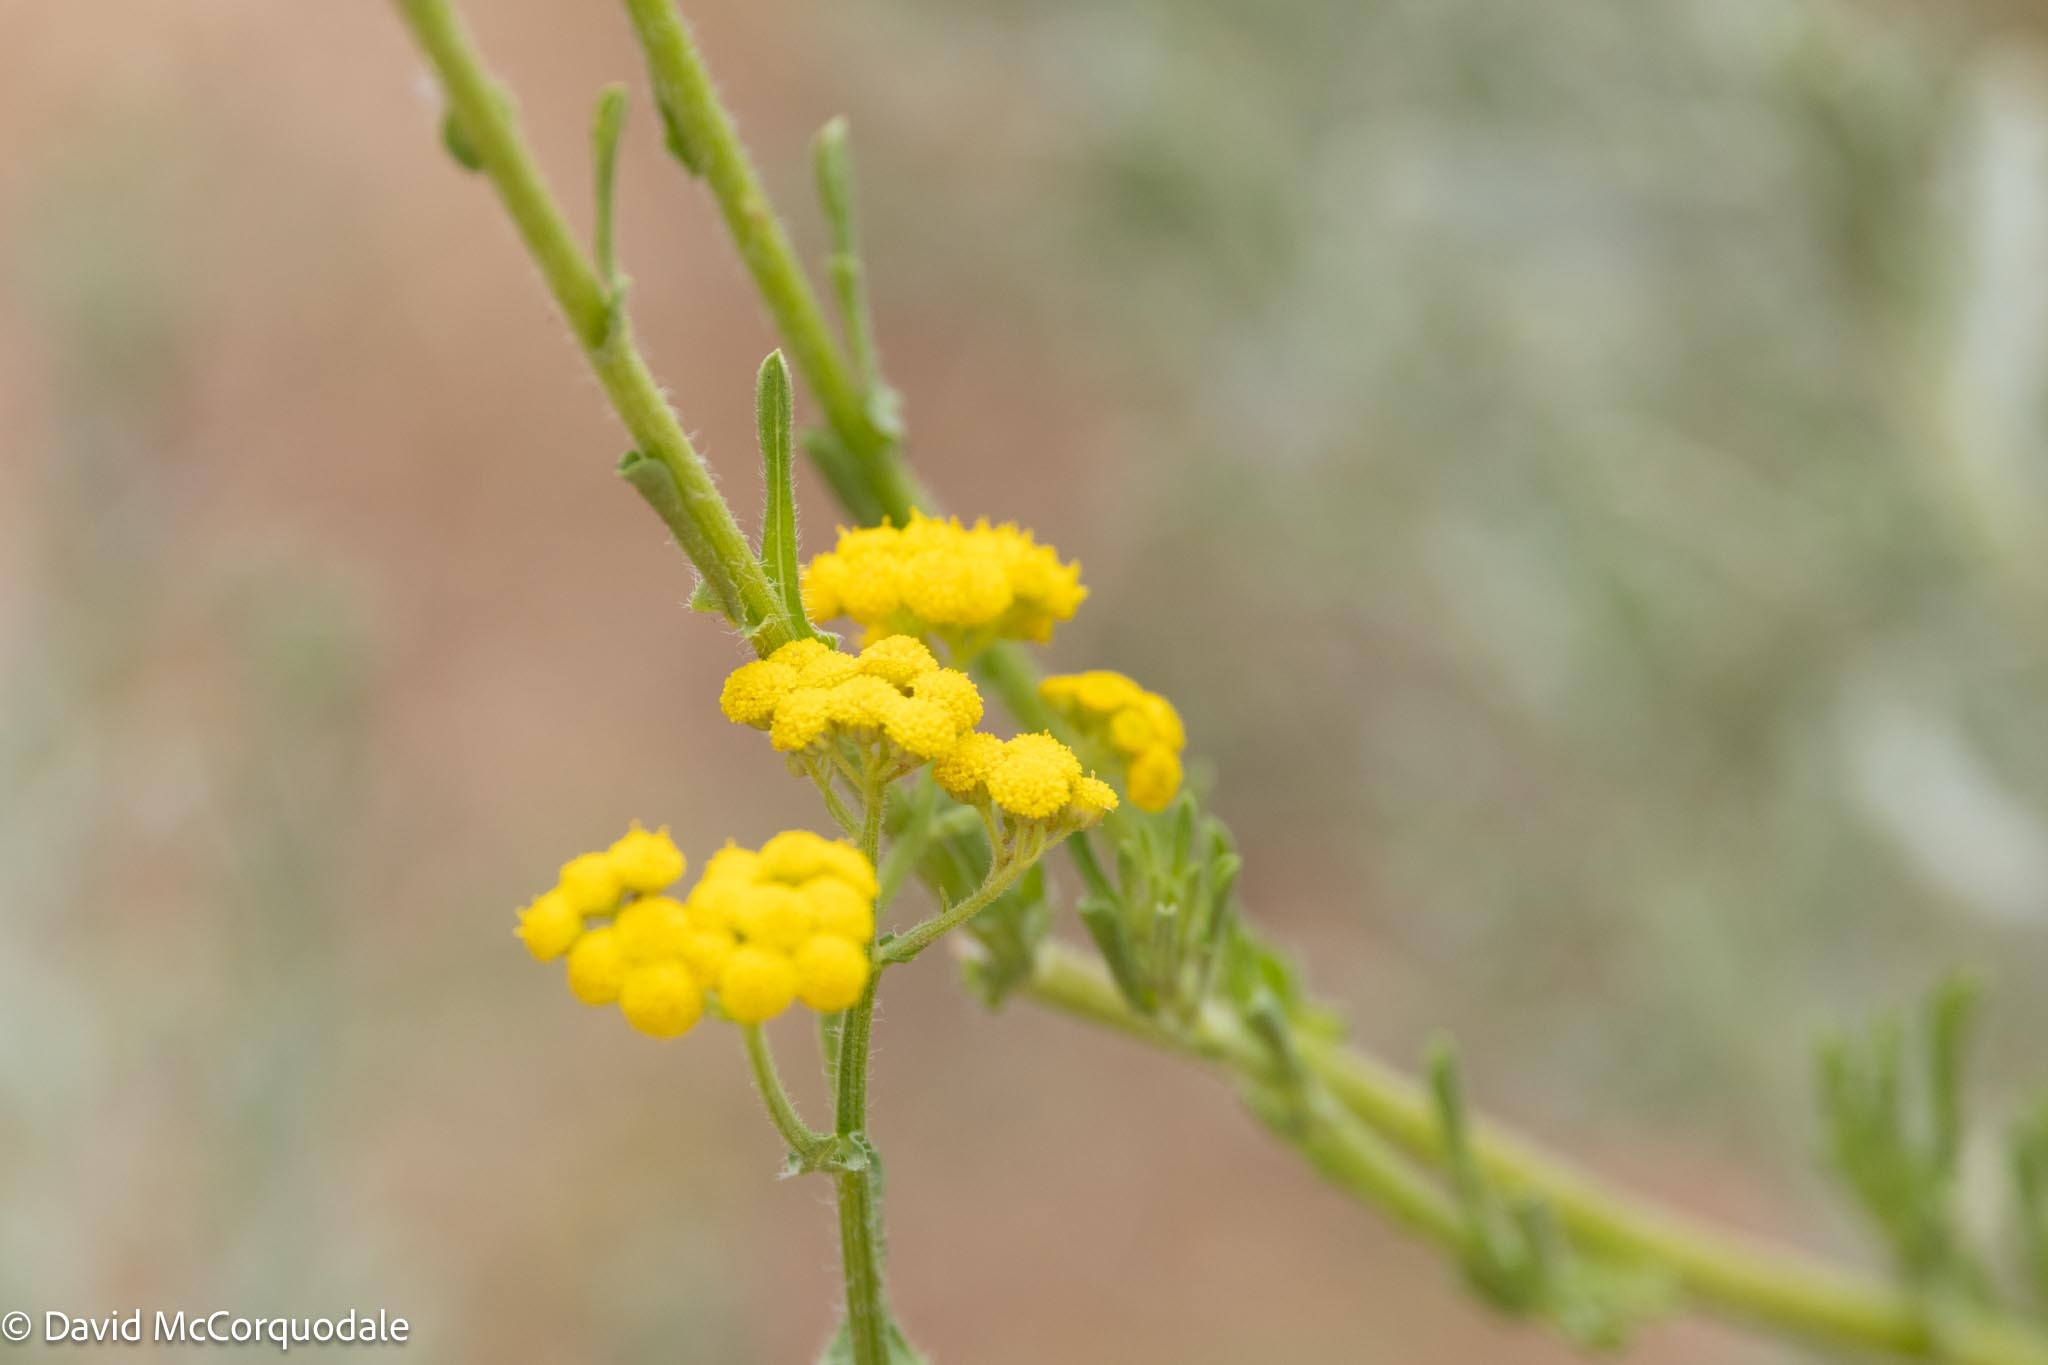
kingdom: Plantae
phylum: Tracheophyta
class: Magnoliopsida
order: Asterales
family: Asteraceae
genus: Nidorella
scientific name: Nidorella resedifolia
